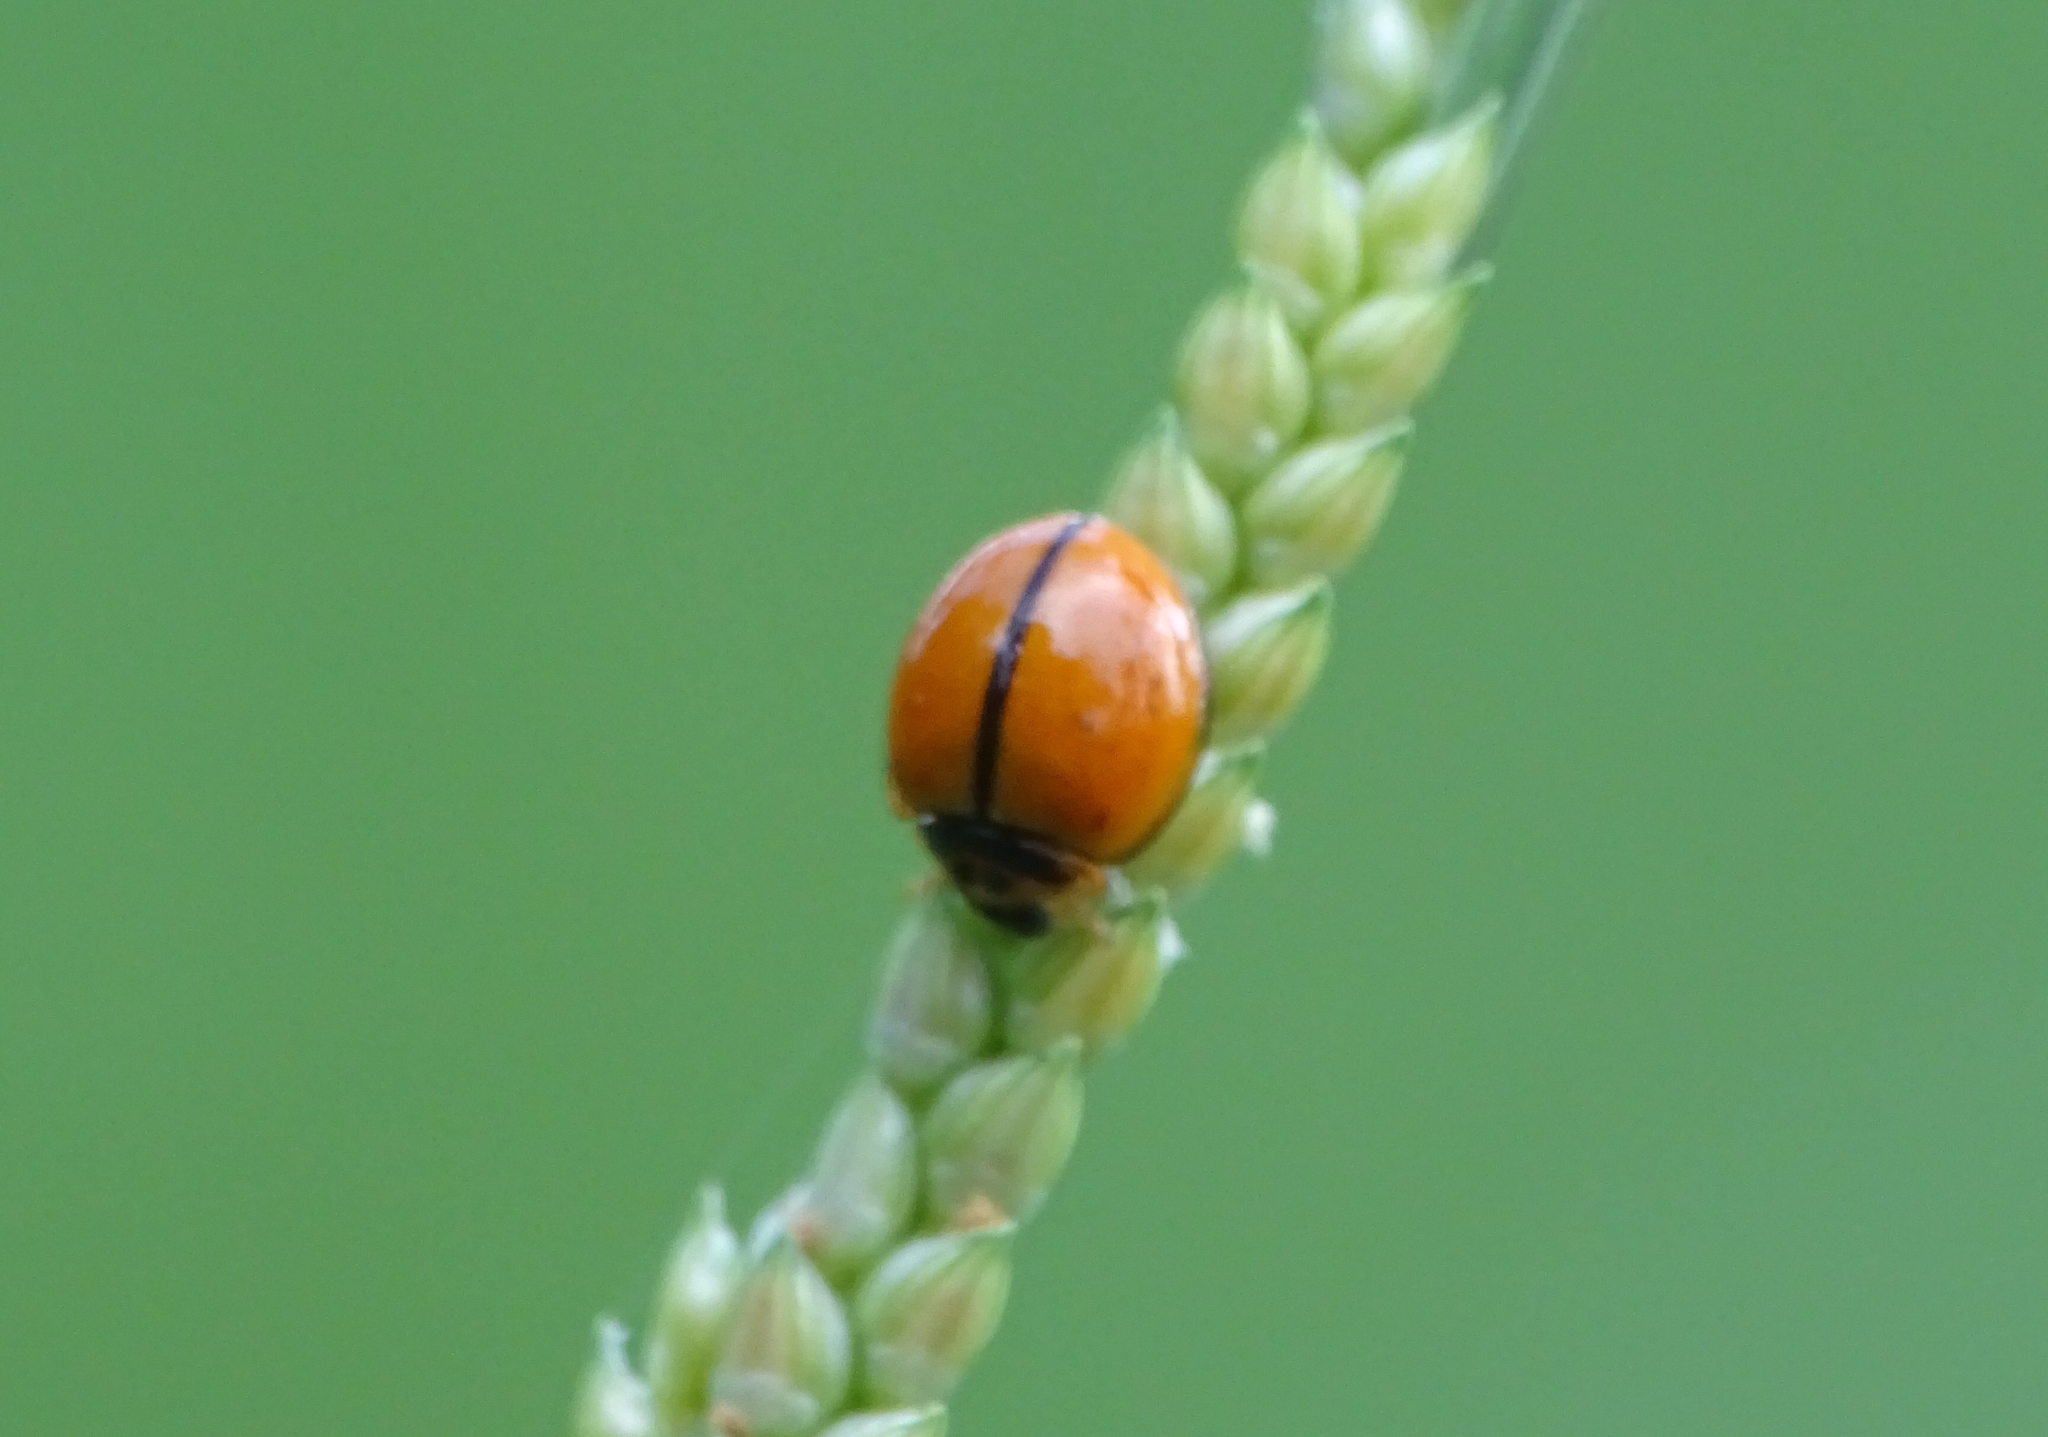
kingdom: Animalia
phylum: Arthropoda
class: Insecta
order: Coleoptera
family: Coccinellidae
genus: Micraspis
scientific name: Micraspis discolor
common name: Lady beetle
